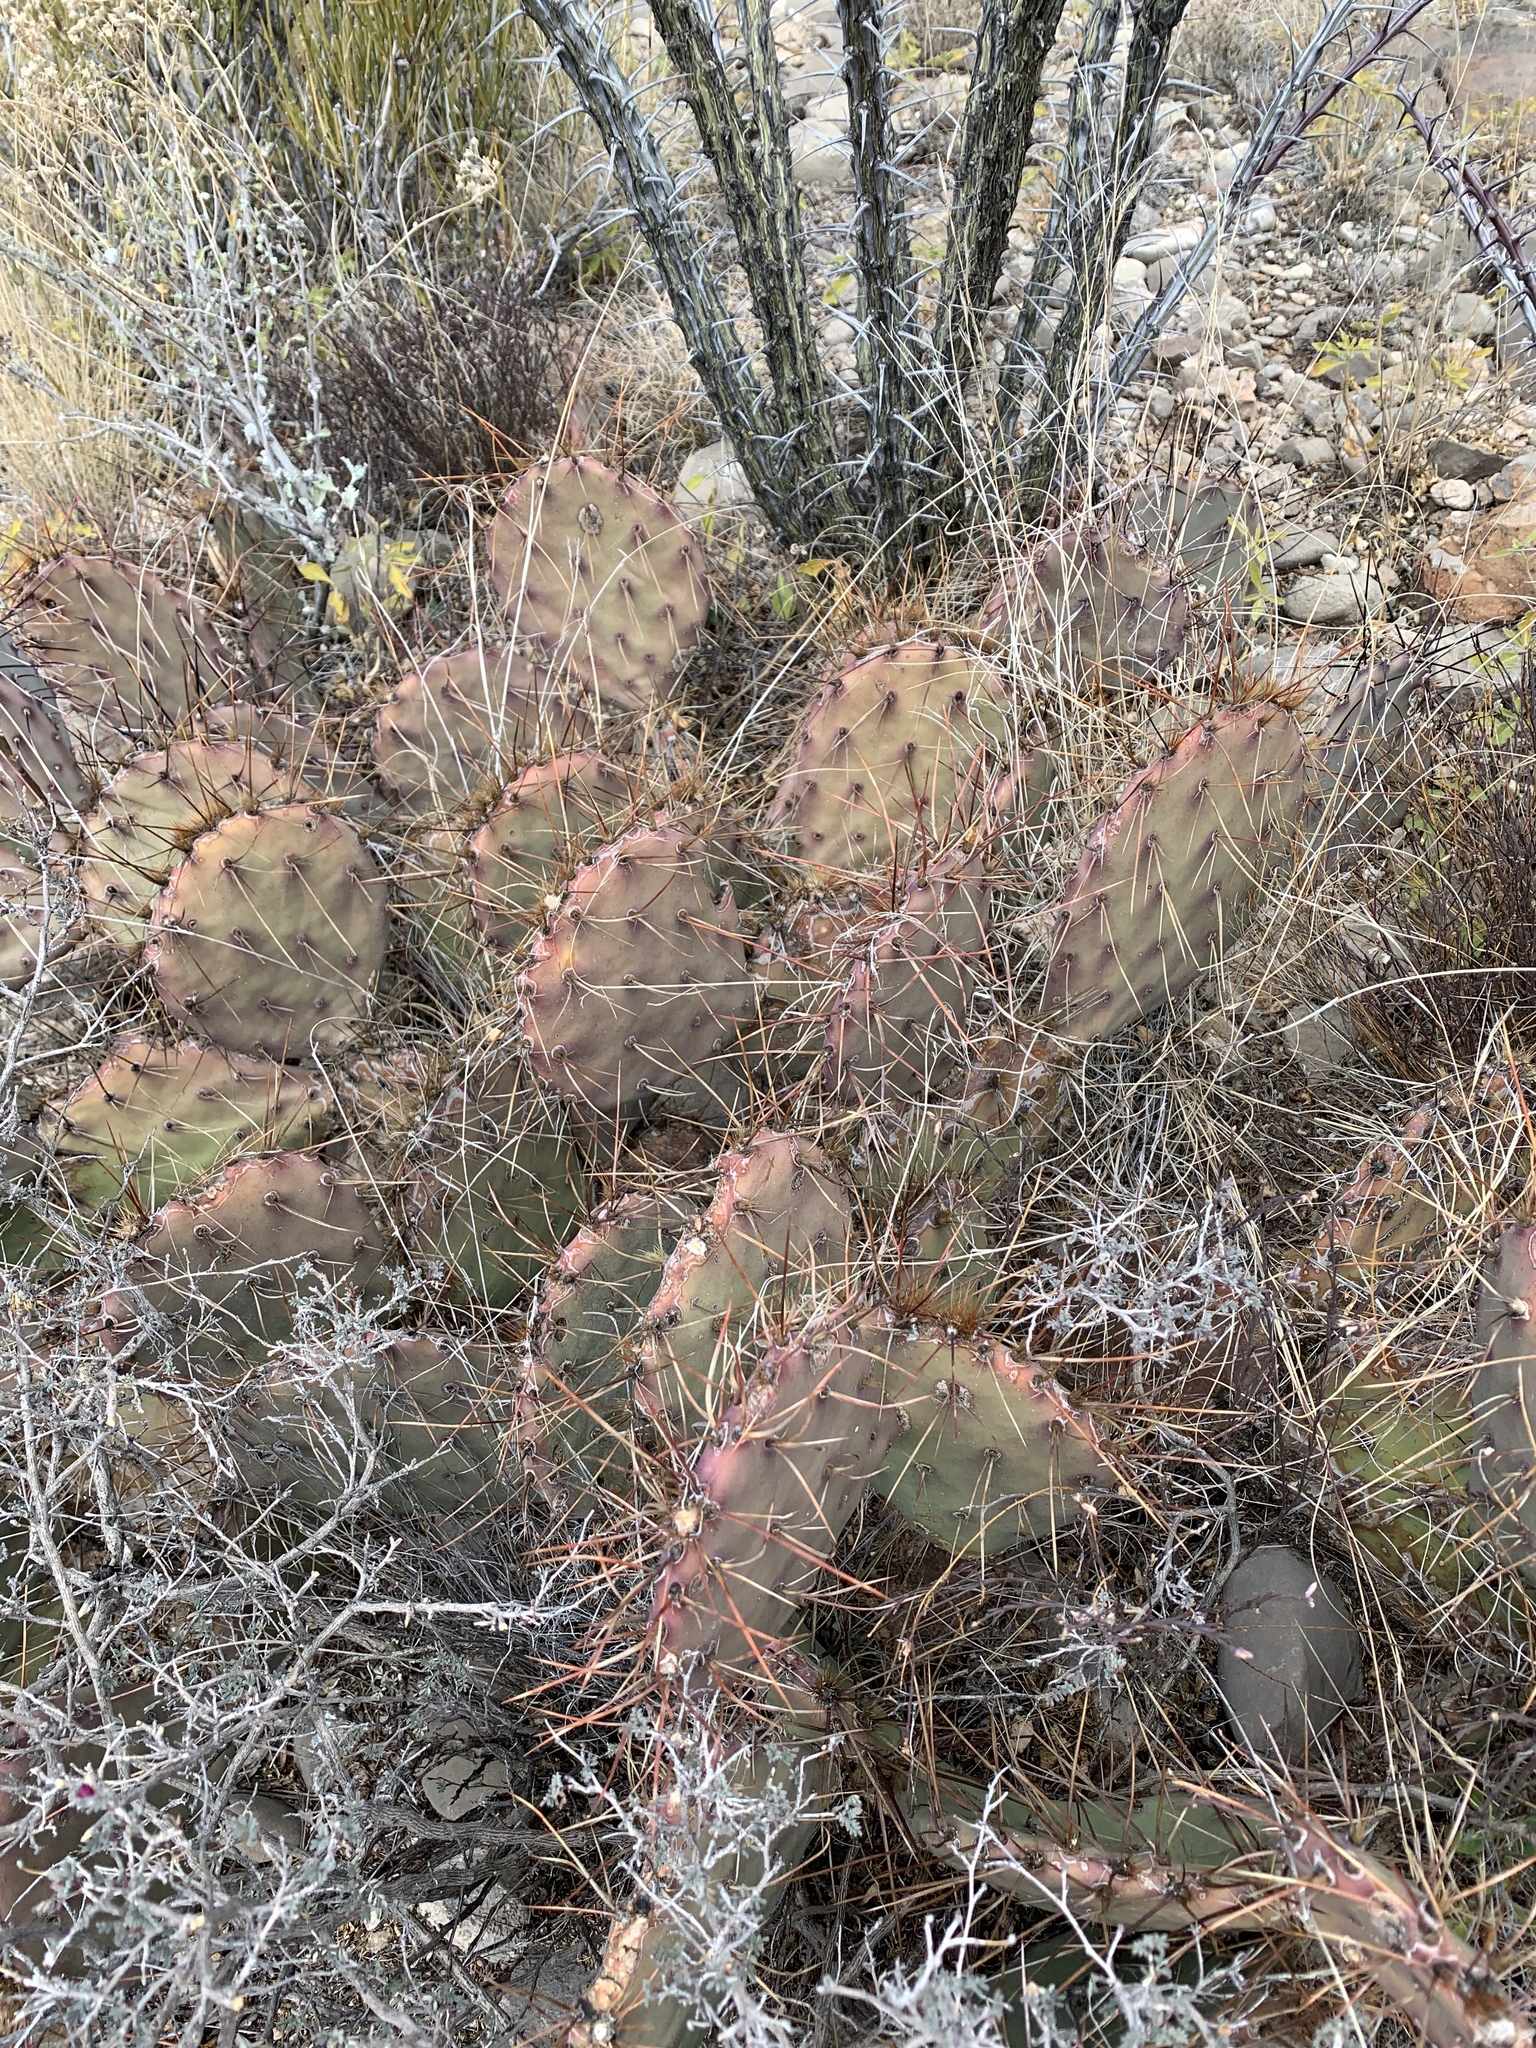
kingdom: Plantae
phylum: Tracheophyta
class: Magnoliopsida
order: Caryophyllales
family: Cactaceae
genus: Opuntia
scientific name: Opuntia macrocentra
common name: Purple prickly-pear
